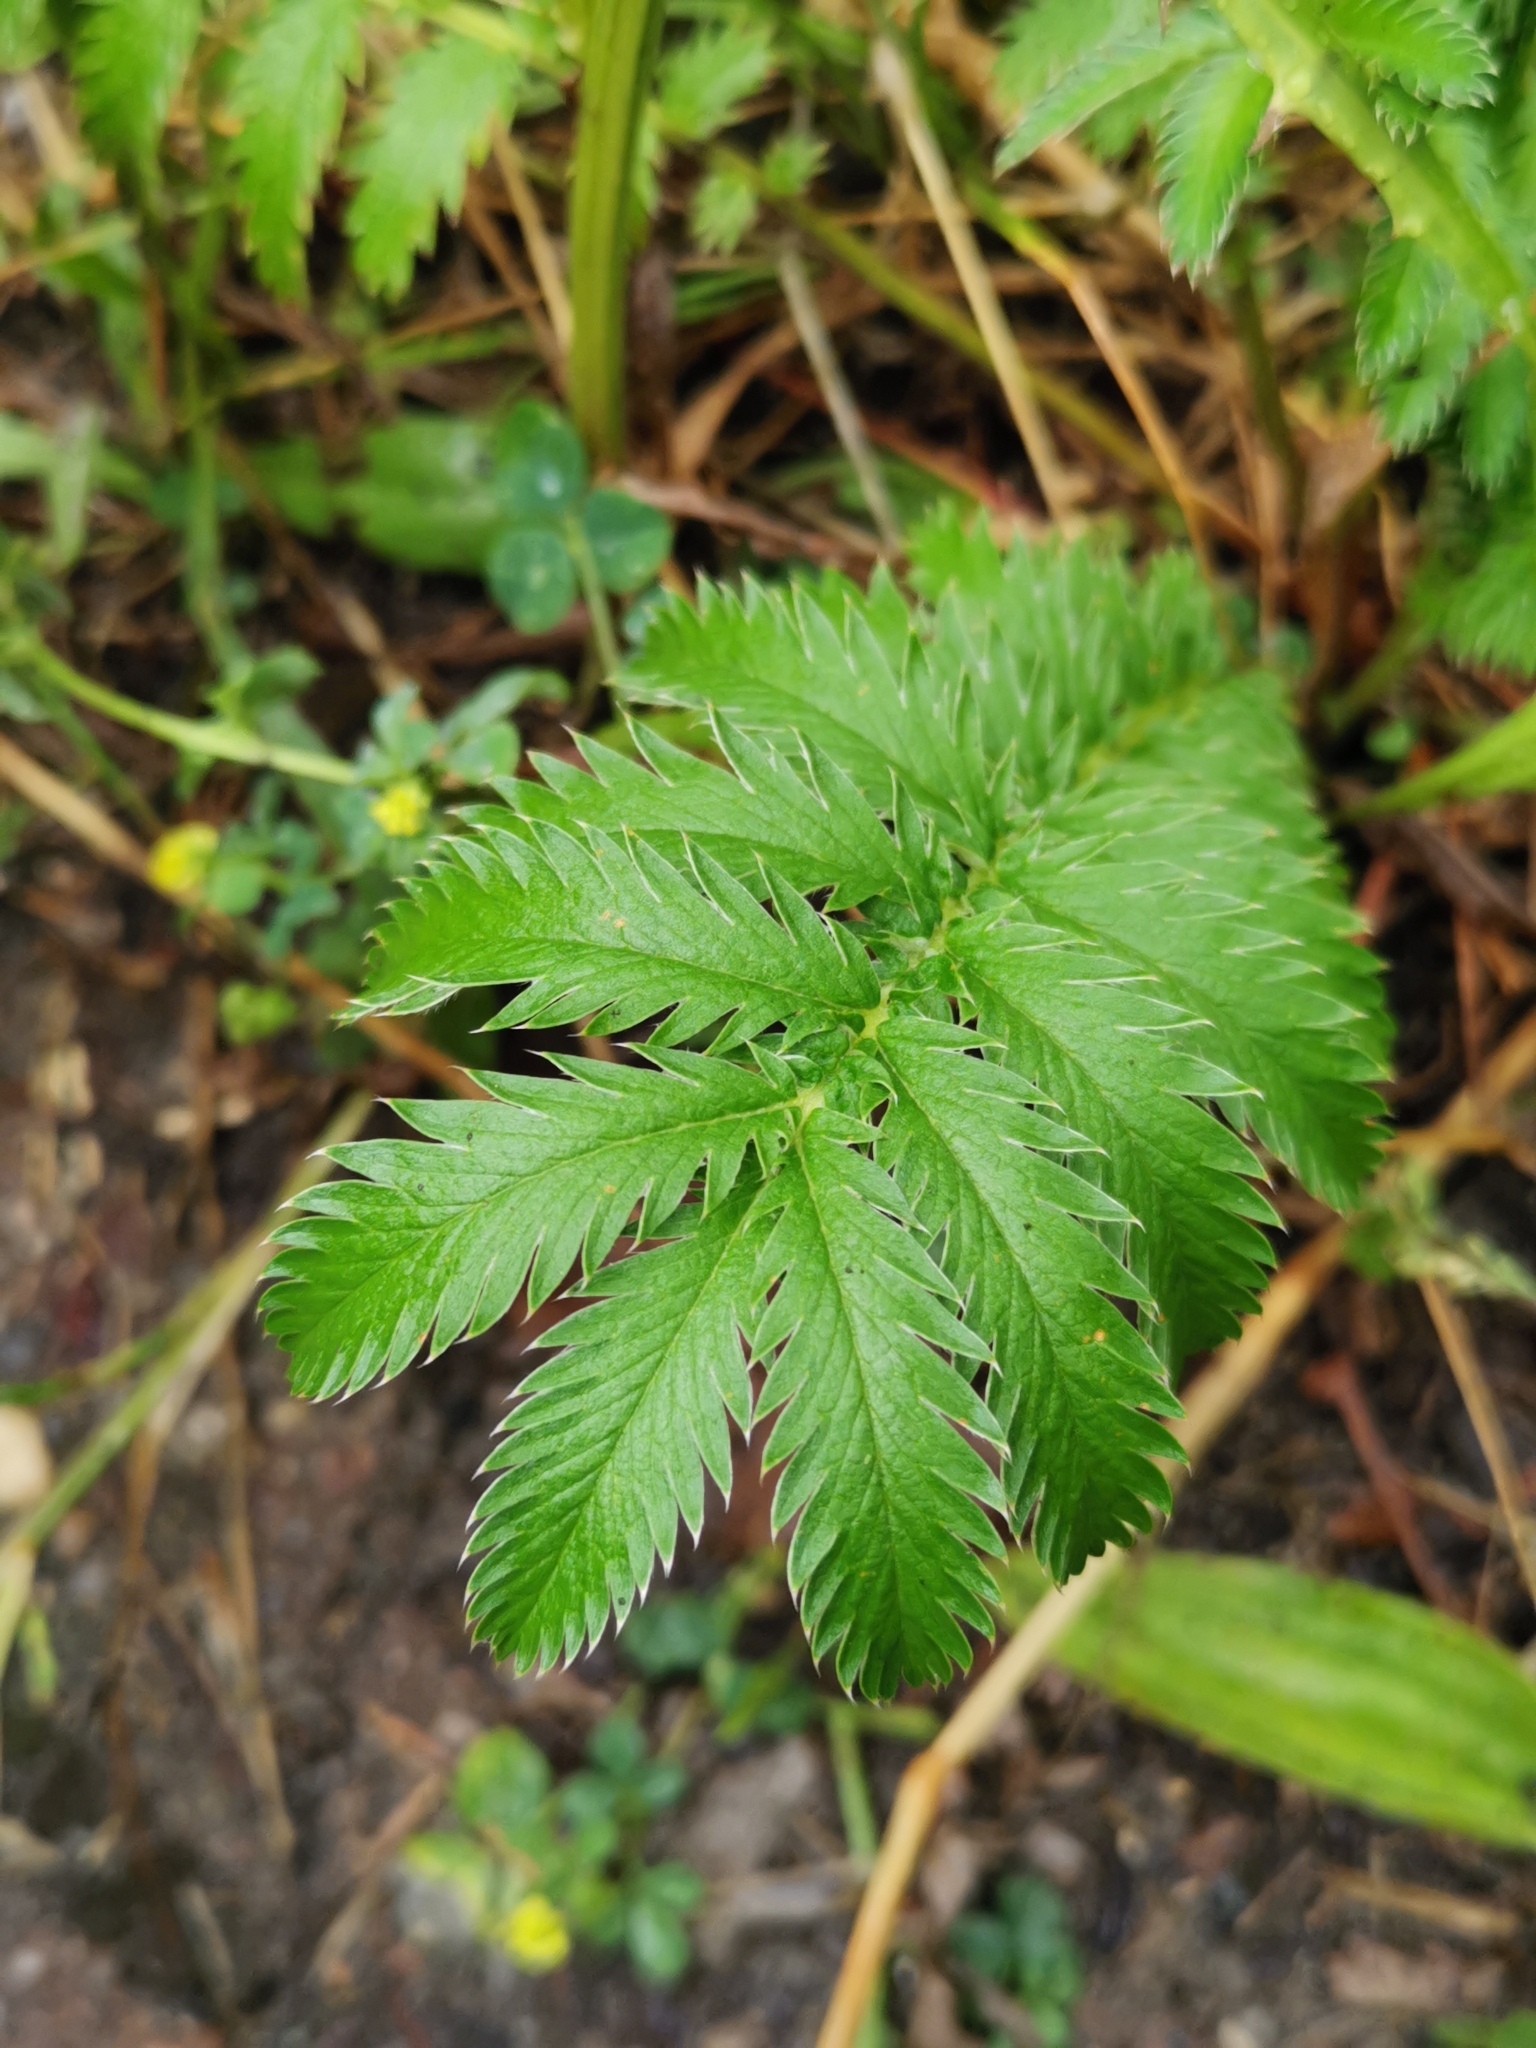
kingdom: Plantae
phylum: Tracheophyta
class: Magnoliopsida
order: Rosales
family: Rosaceae
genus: Argentina
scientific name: Argentina anserina
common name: Common silverweed
